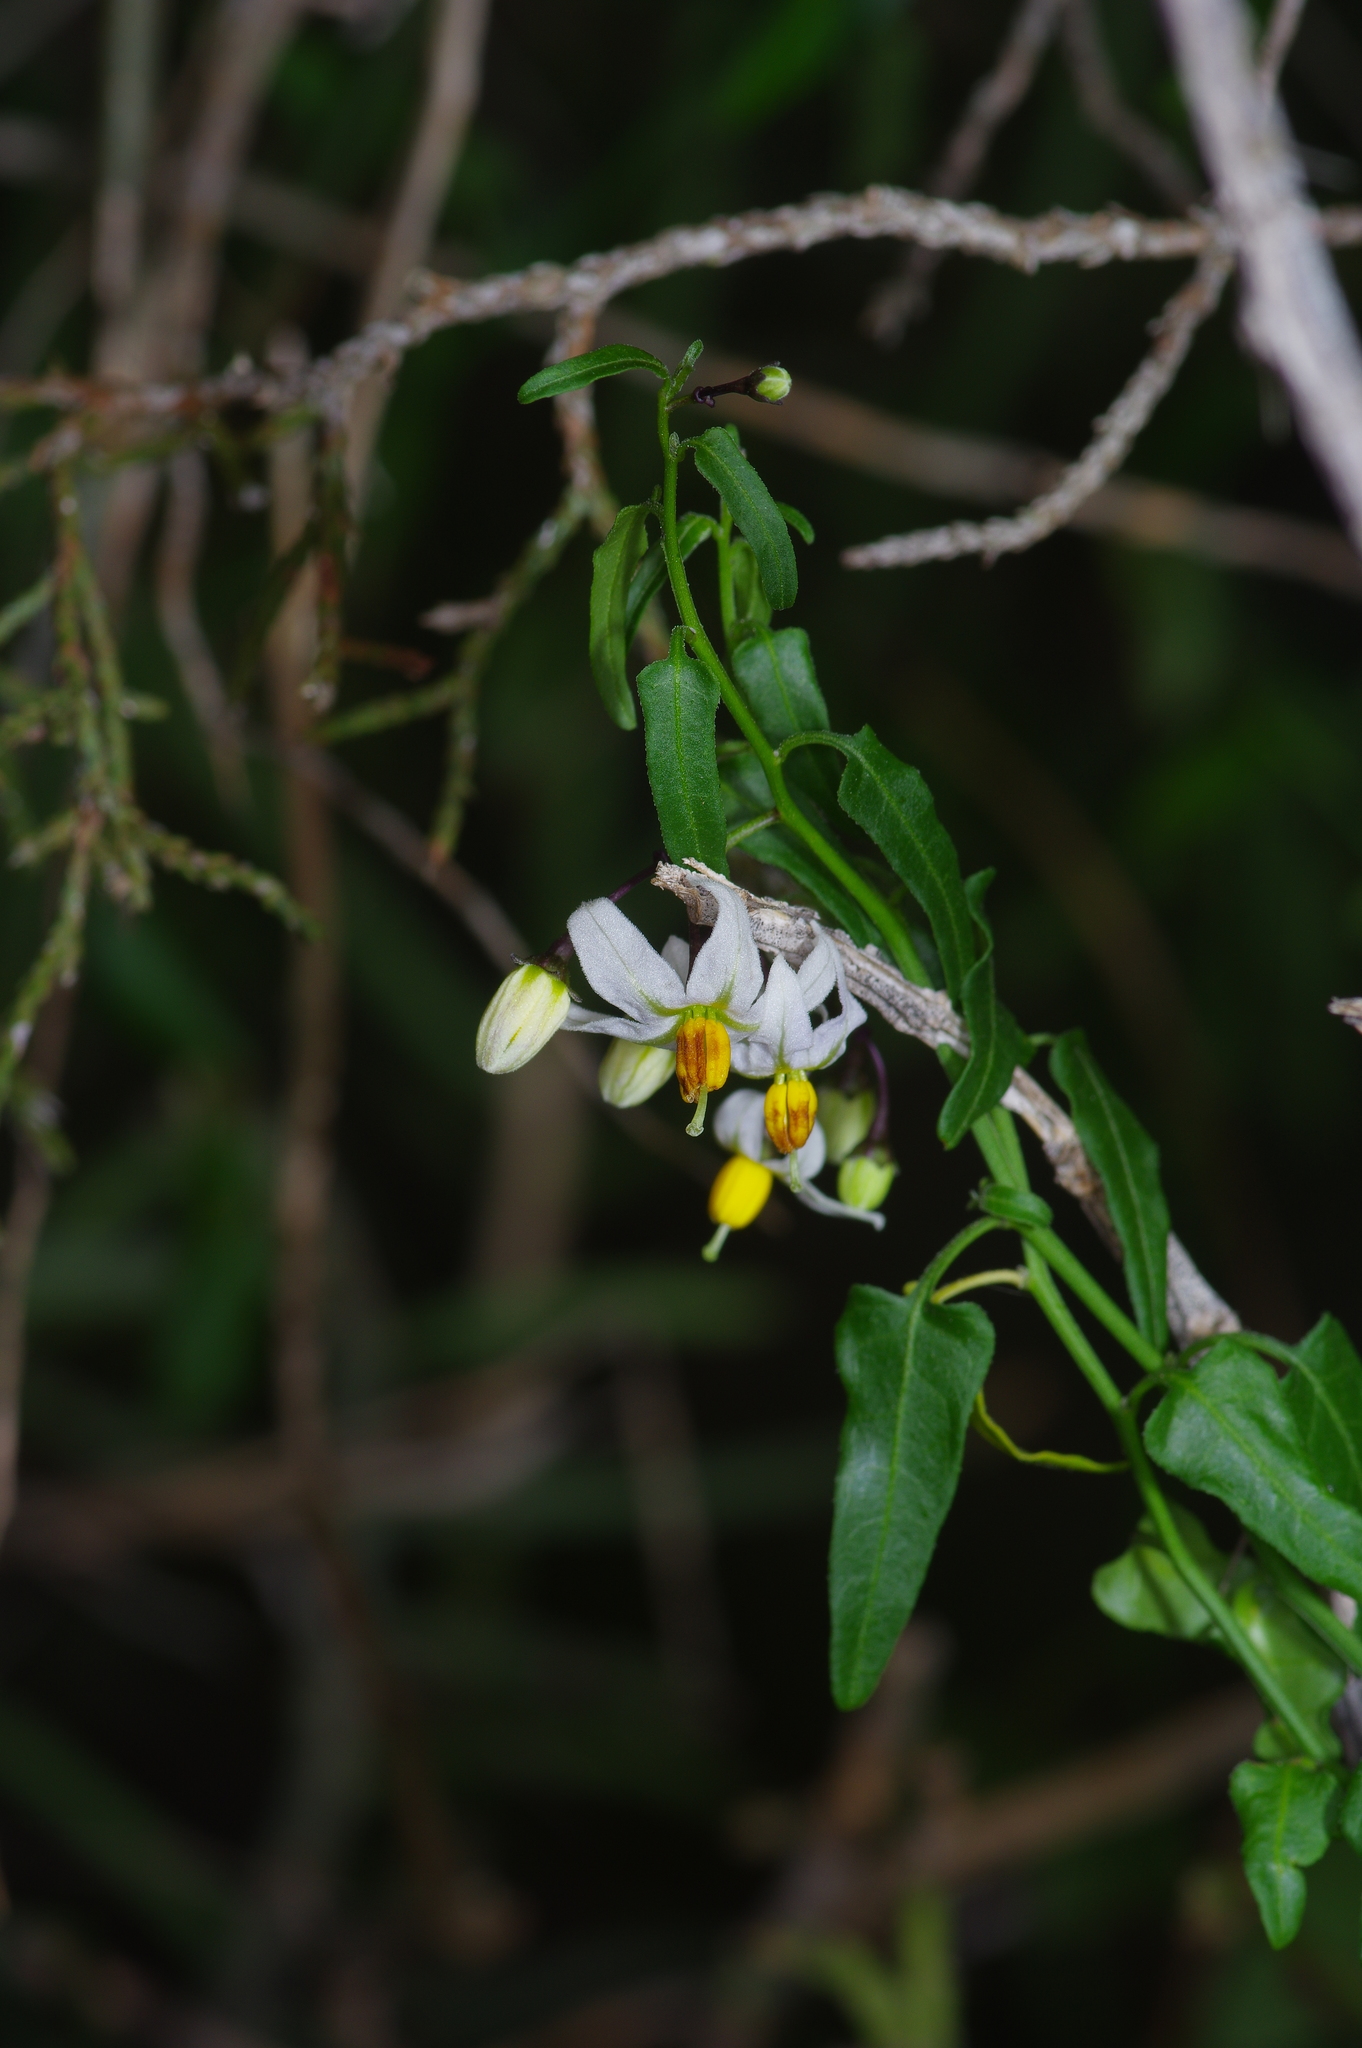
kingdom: Plantae
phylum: Tracheophyta
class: Magnoliopsida
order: Solanales
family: Solanaceae
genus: Solanum
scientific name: Solanum triquetrum
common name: Texas nightshade
